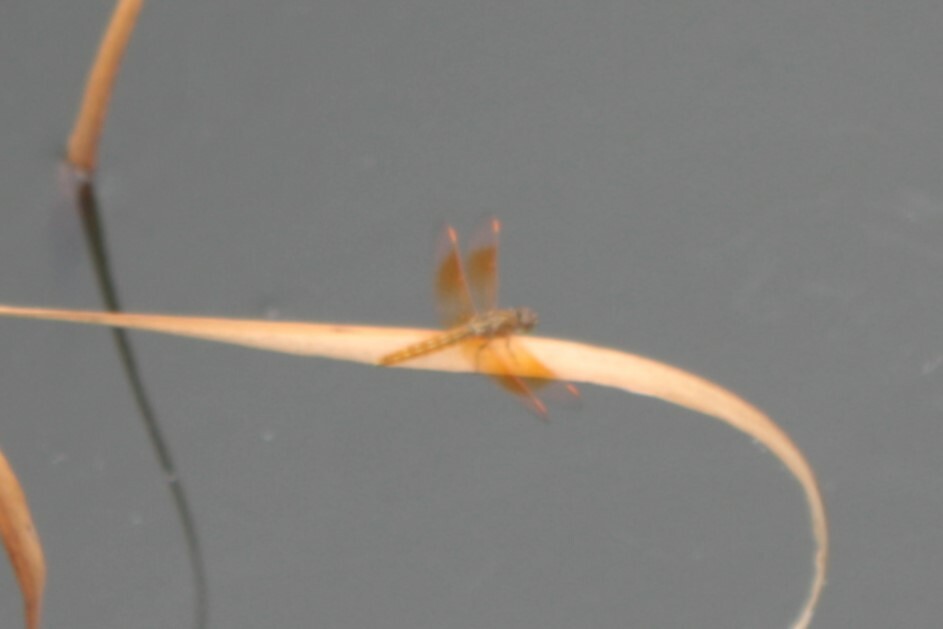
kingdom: Animalia
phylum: Arthropoda
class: Insecta
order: Odonata
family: Libellulidae
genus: Brachythemis
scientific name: Brachythemis contaminata
